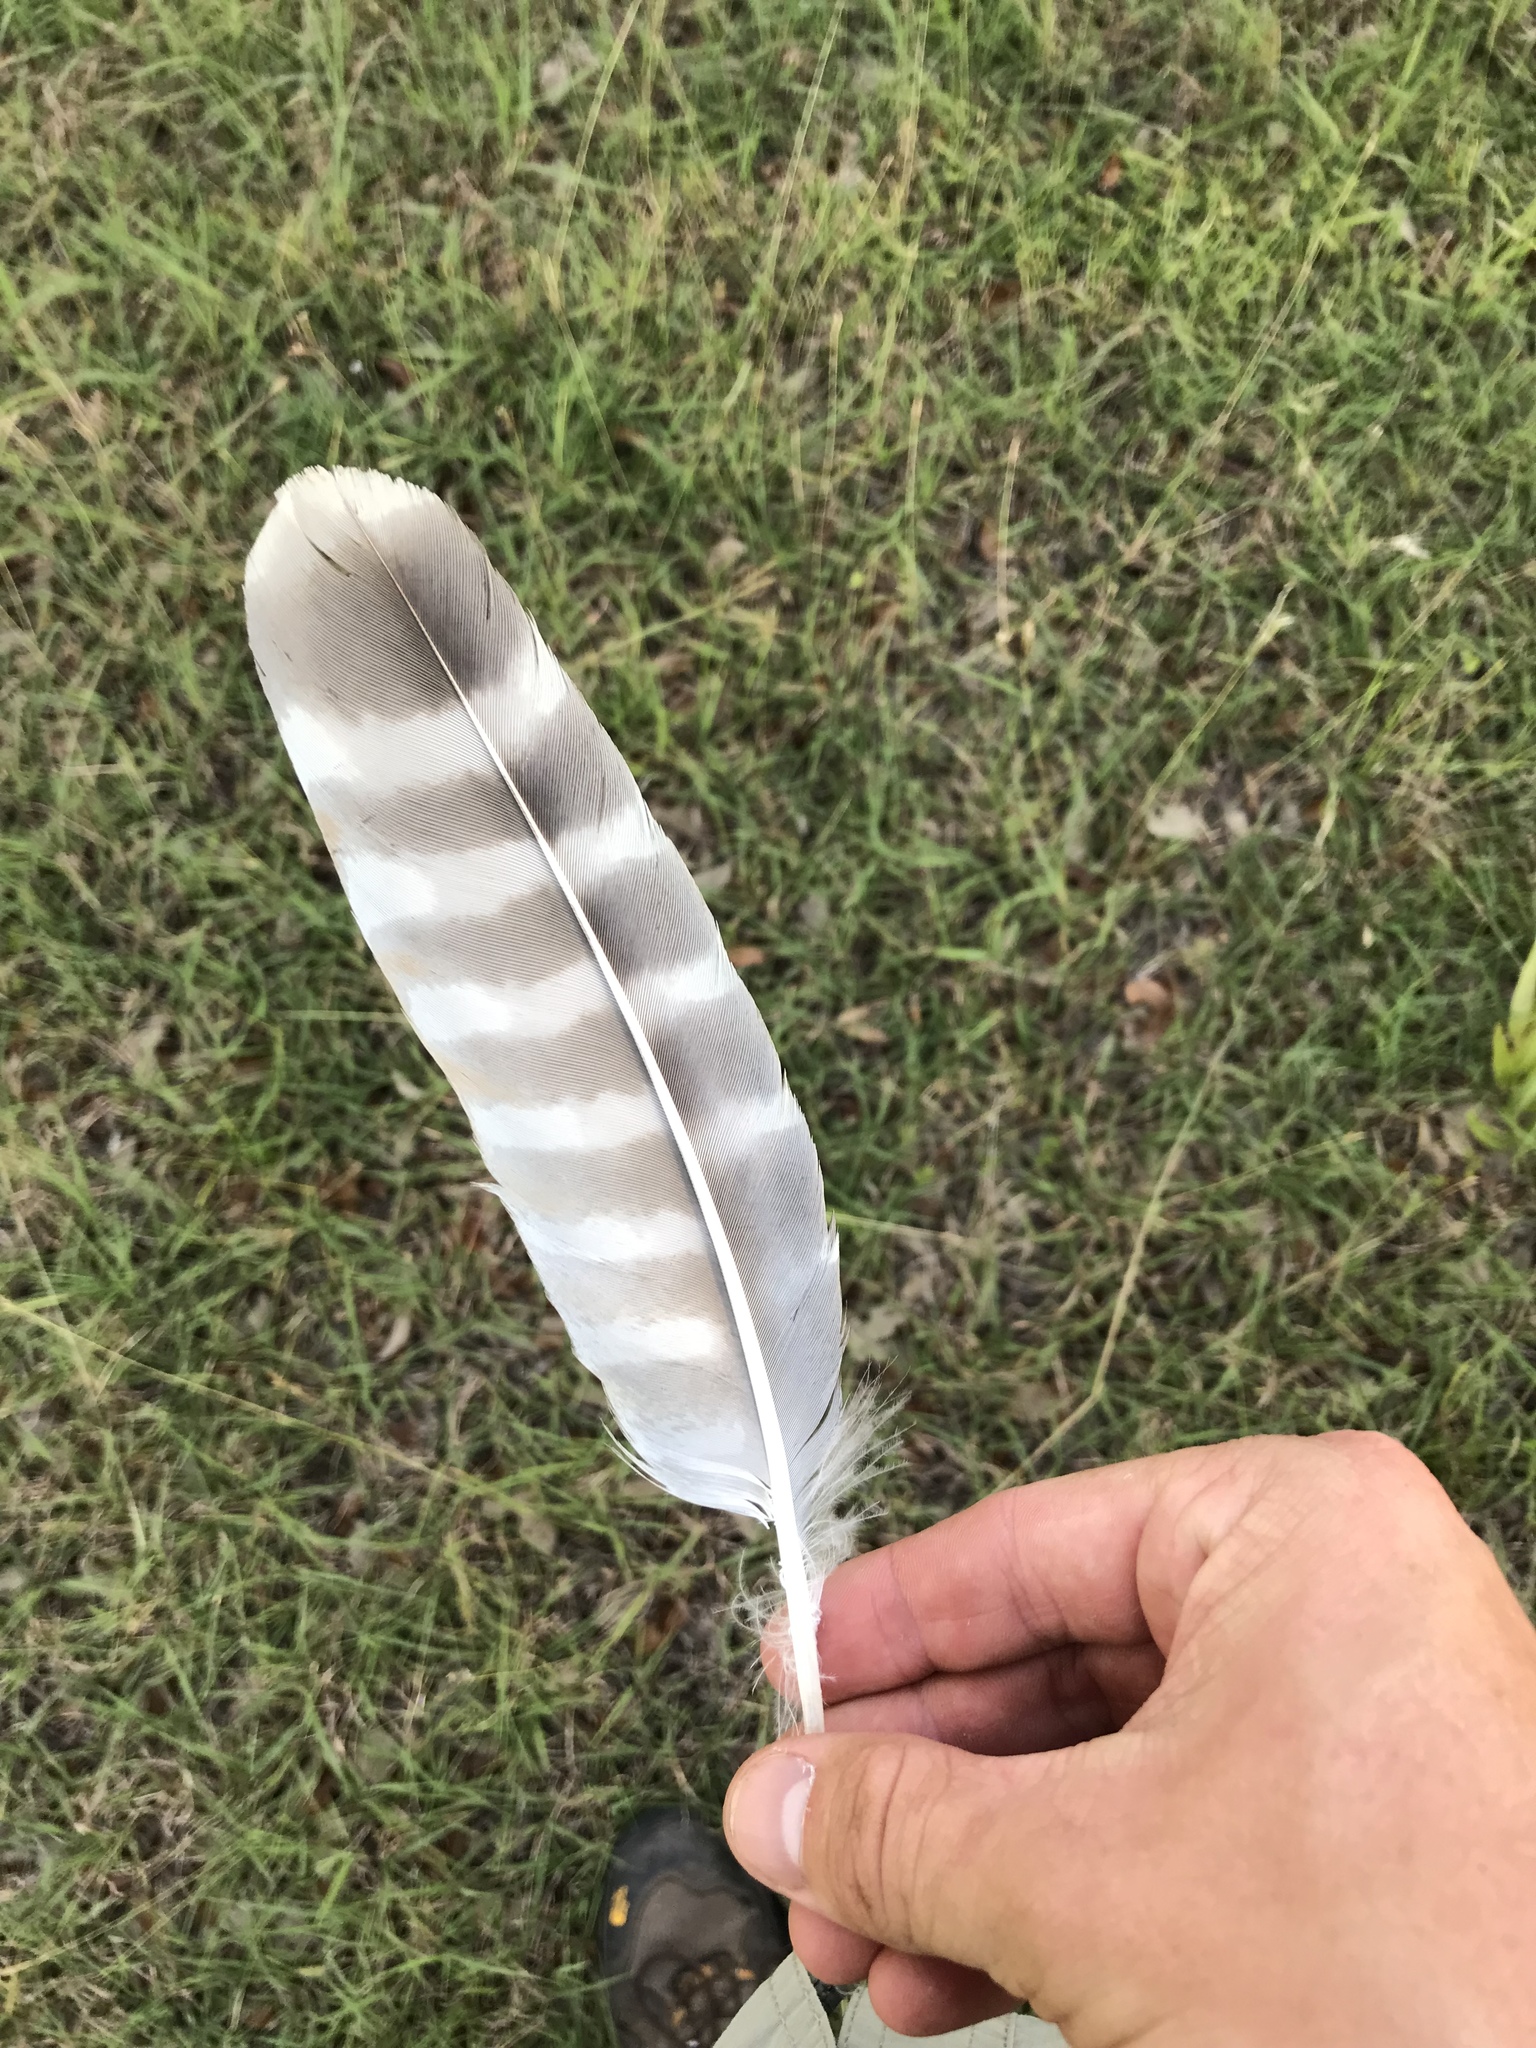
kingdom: Animalia
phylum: Chordata
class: Aves
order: Accipitriformes
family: Accipitridae
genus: Buteo
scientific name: Buteo lineatus
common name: Red-shouldered hawk
